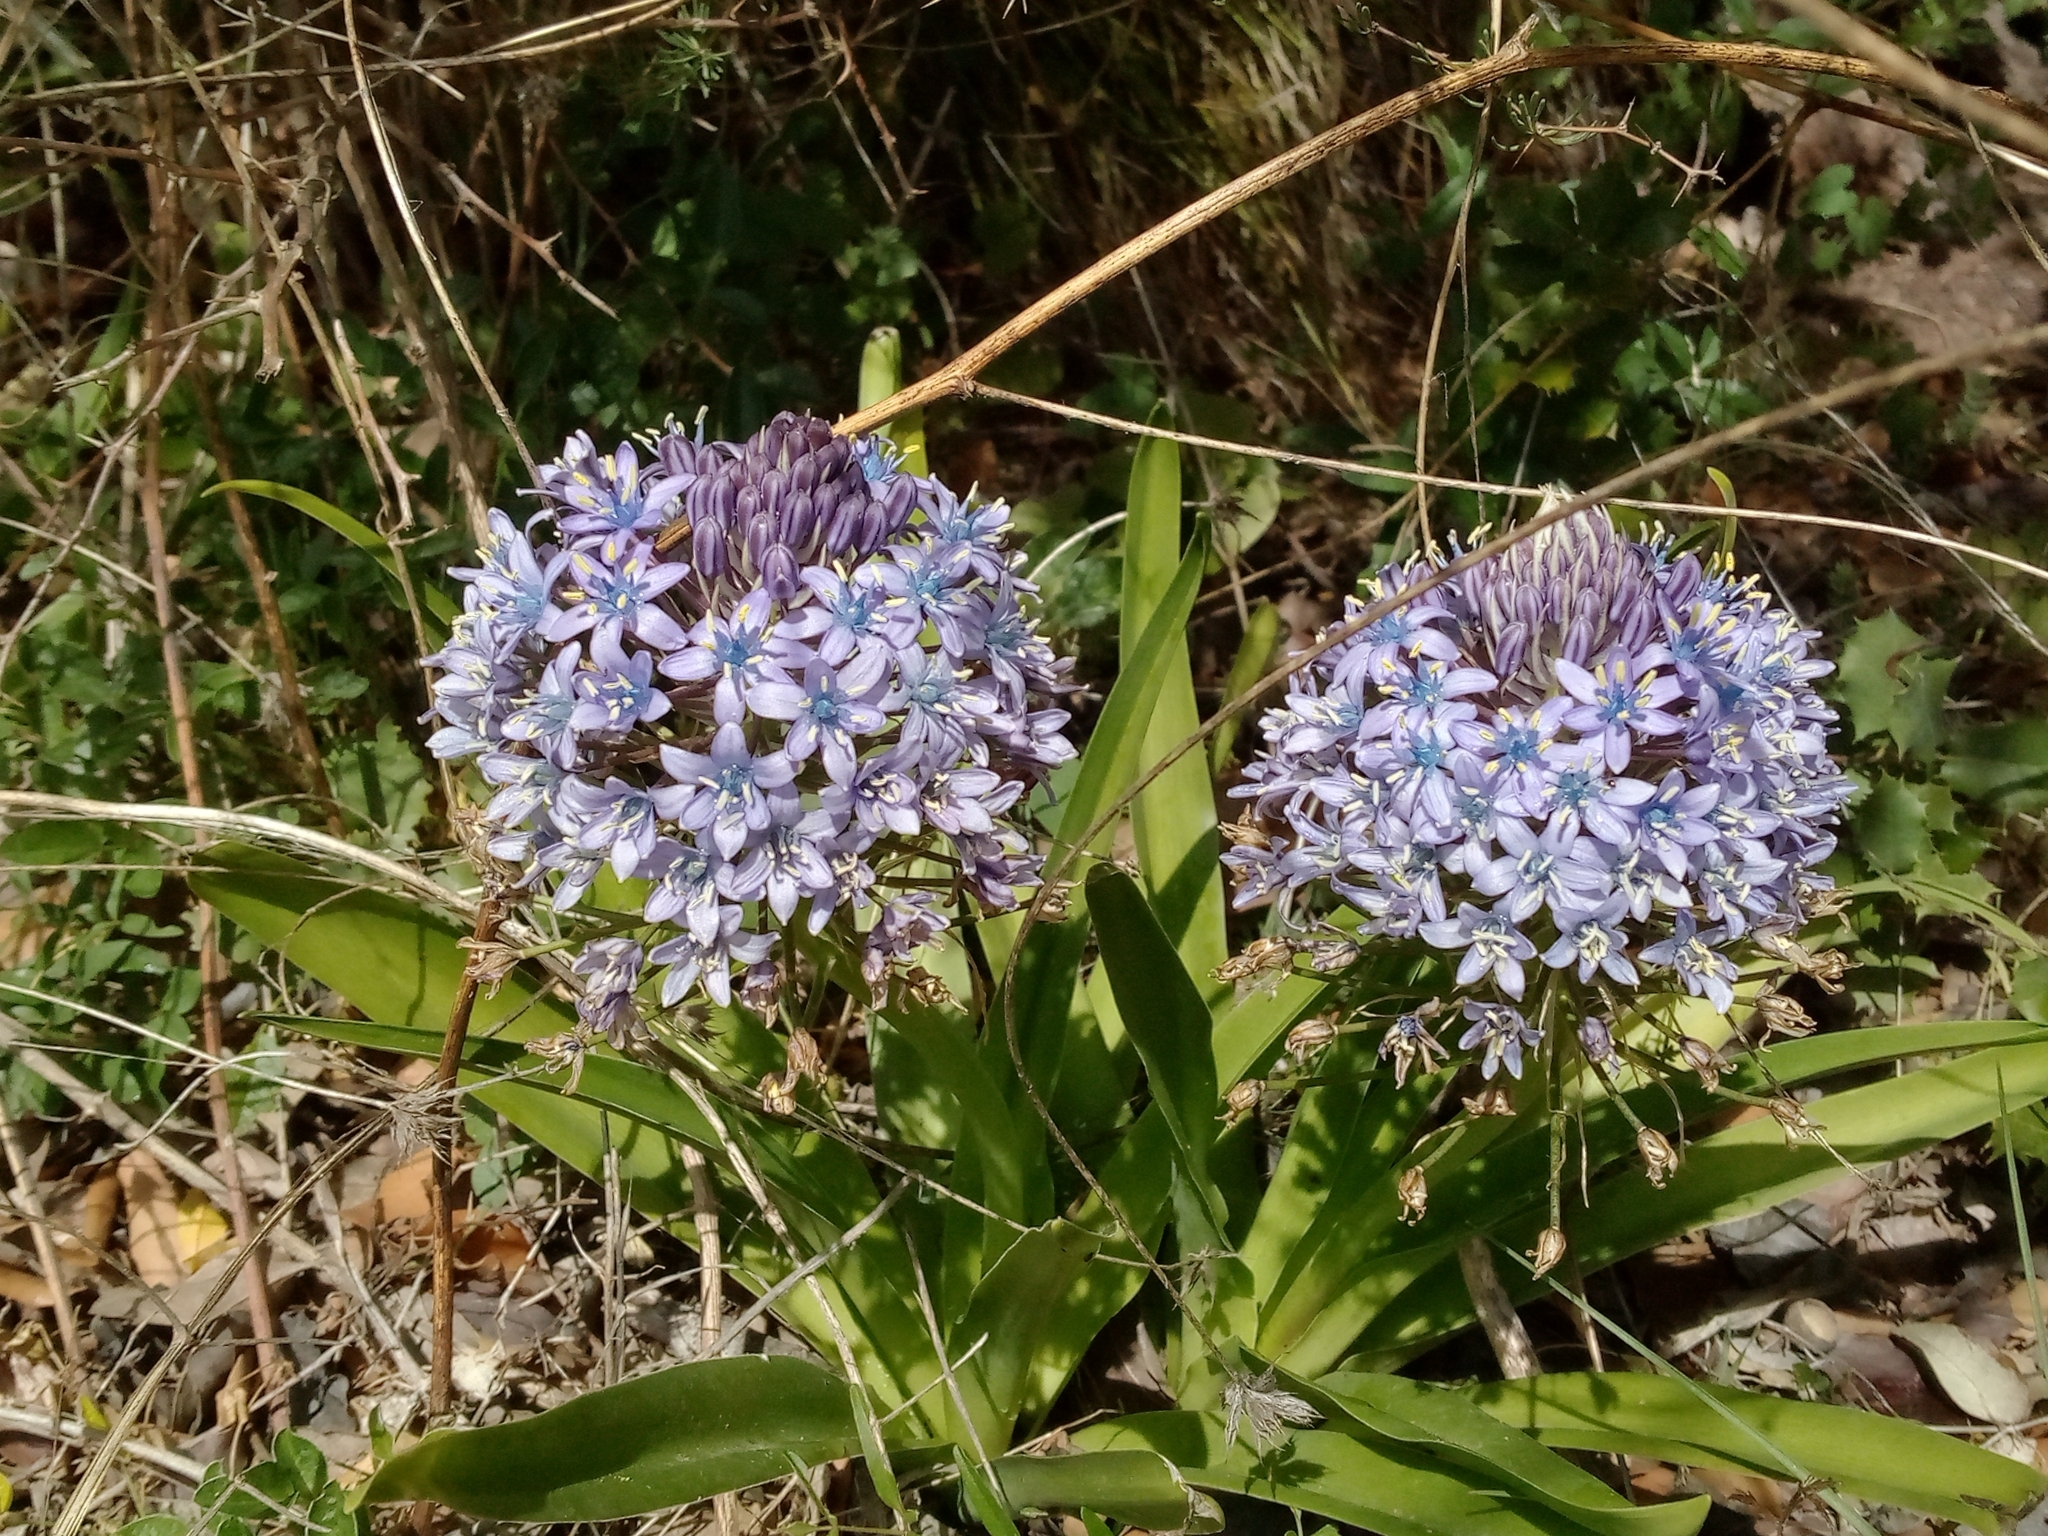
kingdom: Plantae
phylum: Tracheophyta
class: Liliopsida
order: Asparagales
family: Asparagaceae
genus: Scilla
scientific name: Scilla peruviana
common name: Portuguese squill
